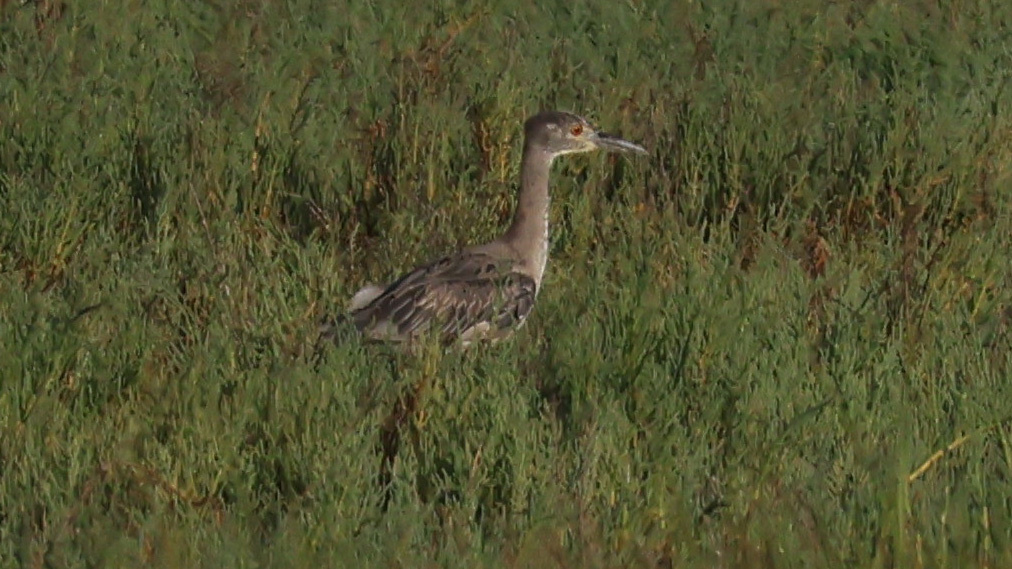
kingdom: Animalia
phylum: Chordata
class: Aves
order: Pelecaniformes
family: Ardeidae
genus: Nyctanassa
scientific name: Nyctanassa violacea
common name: Yellow-crowned night heron
